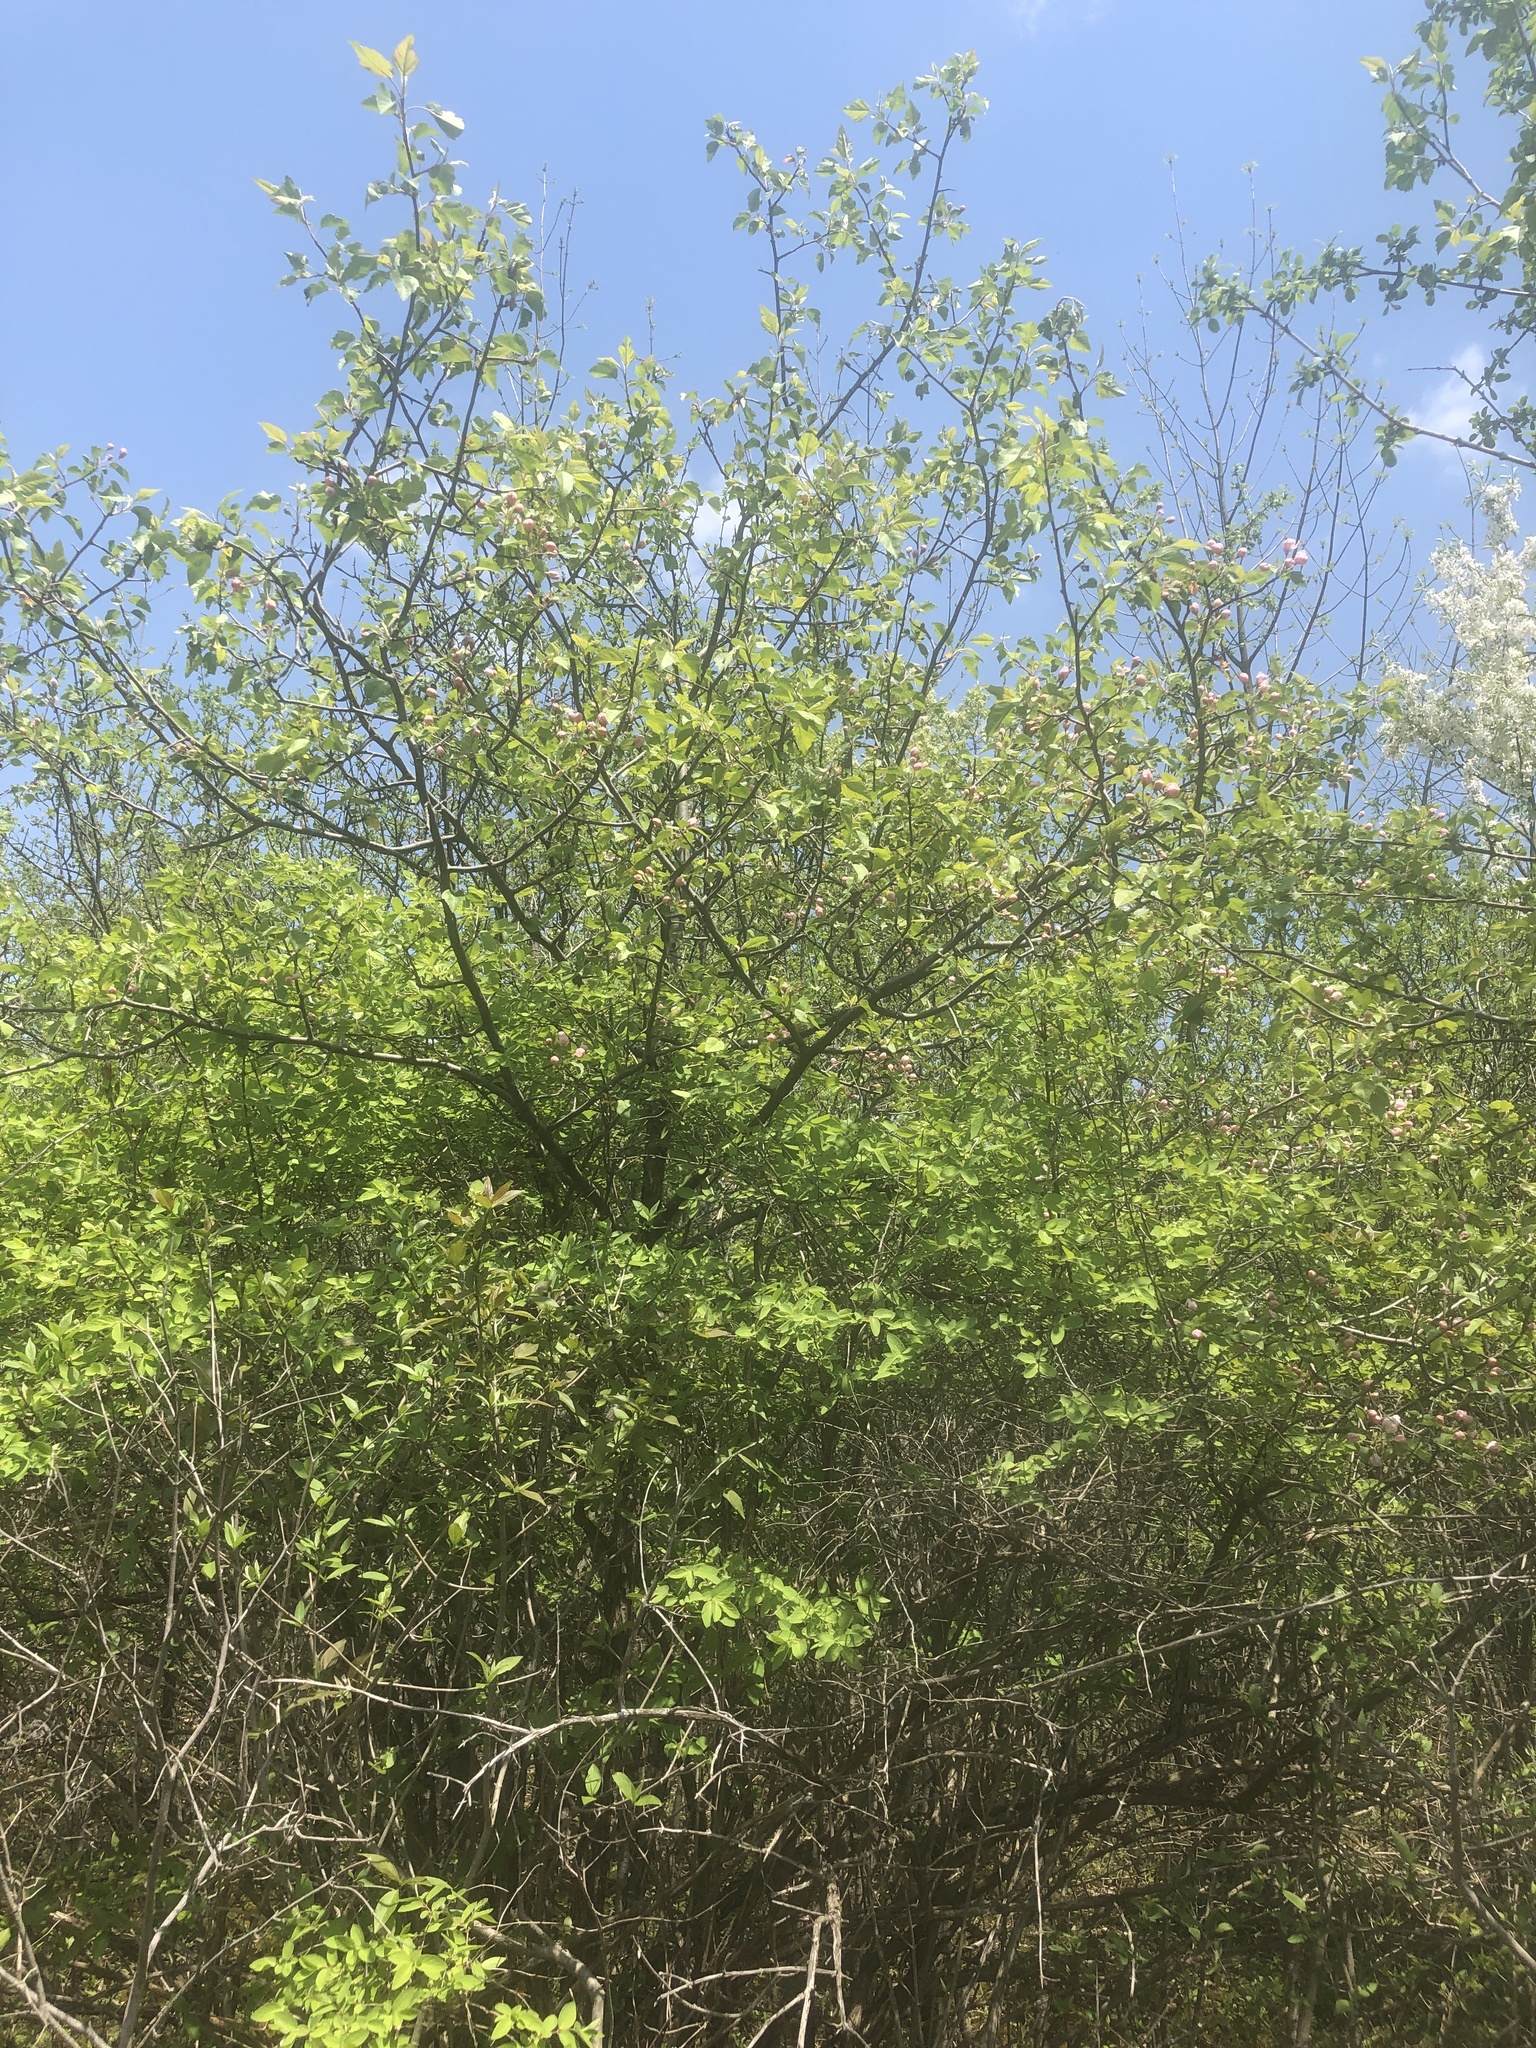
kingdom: Plantae
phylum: Tracheophyta
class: Magnoliopsida
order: Rosales
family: Rosaceae
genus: Malus
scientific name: Malus coronaria
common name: Sweet crab apple
